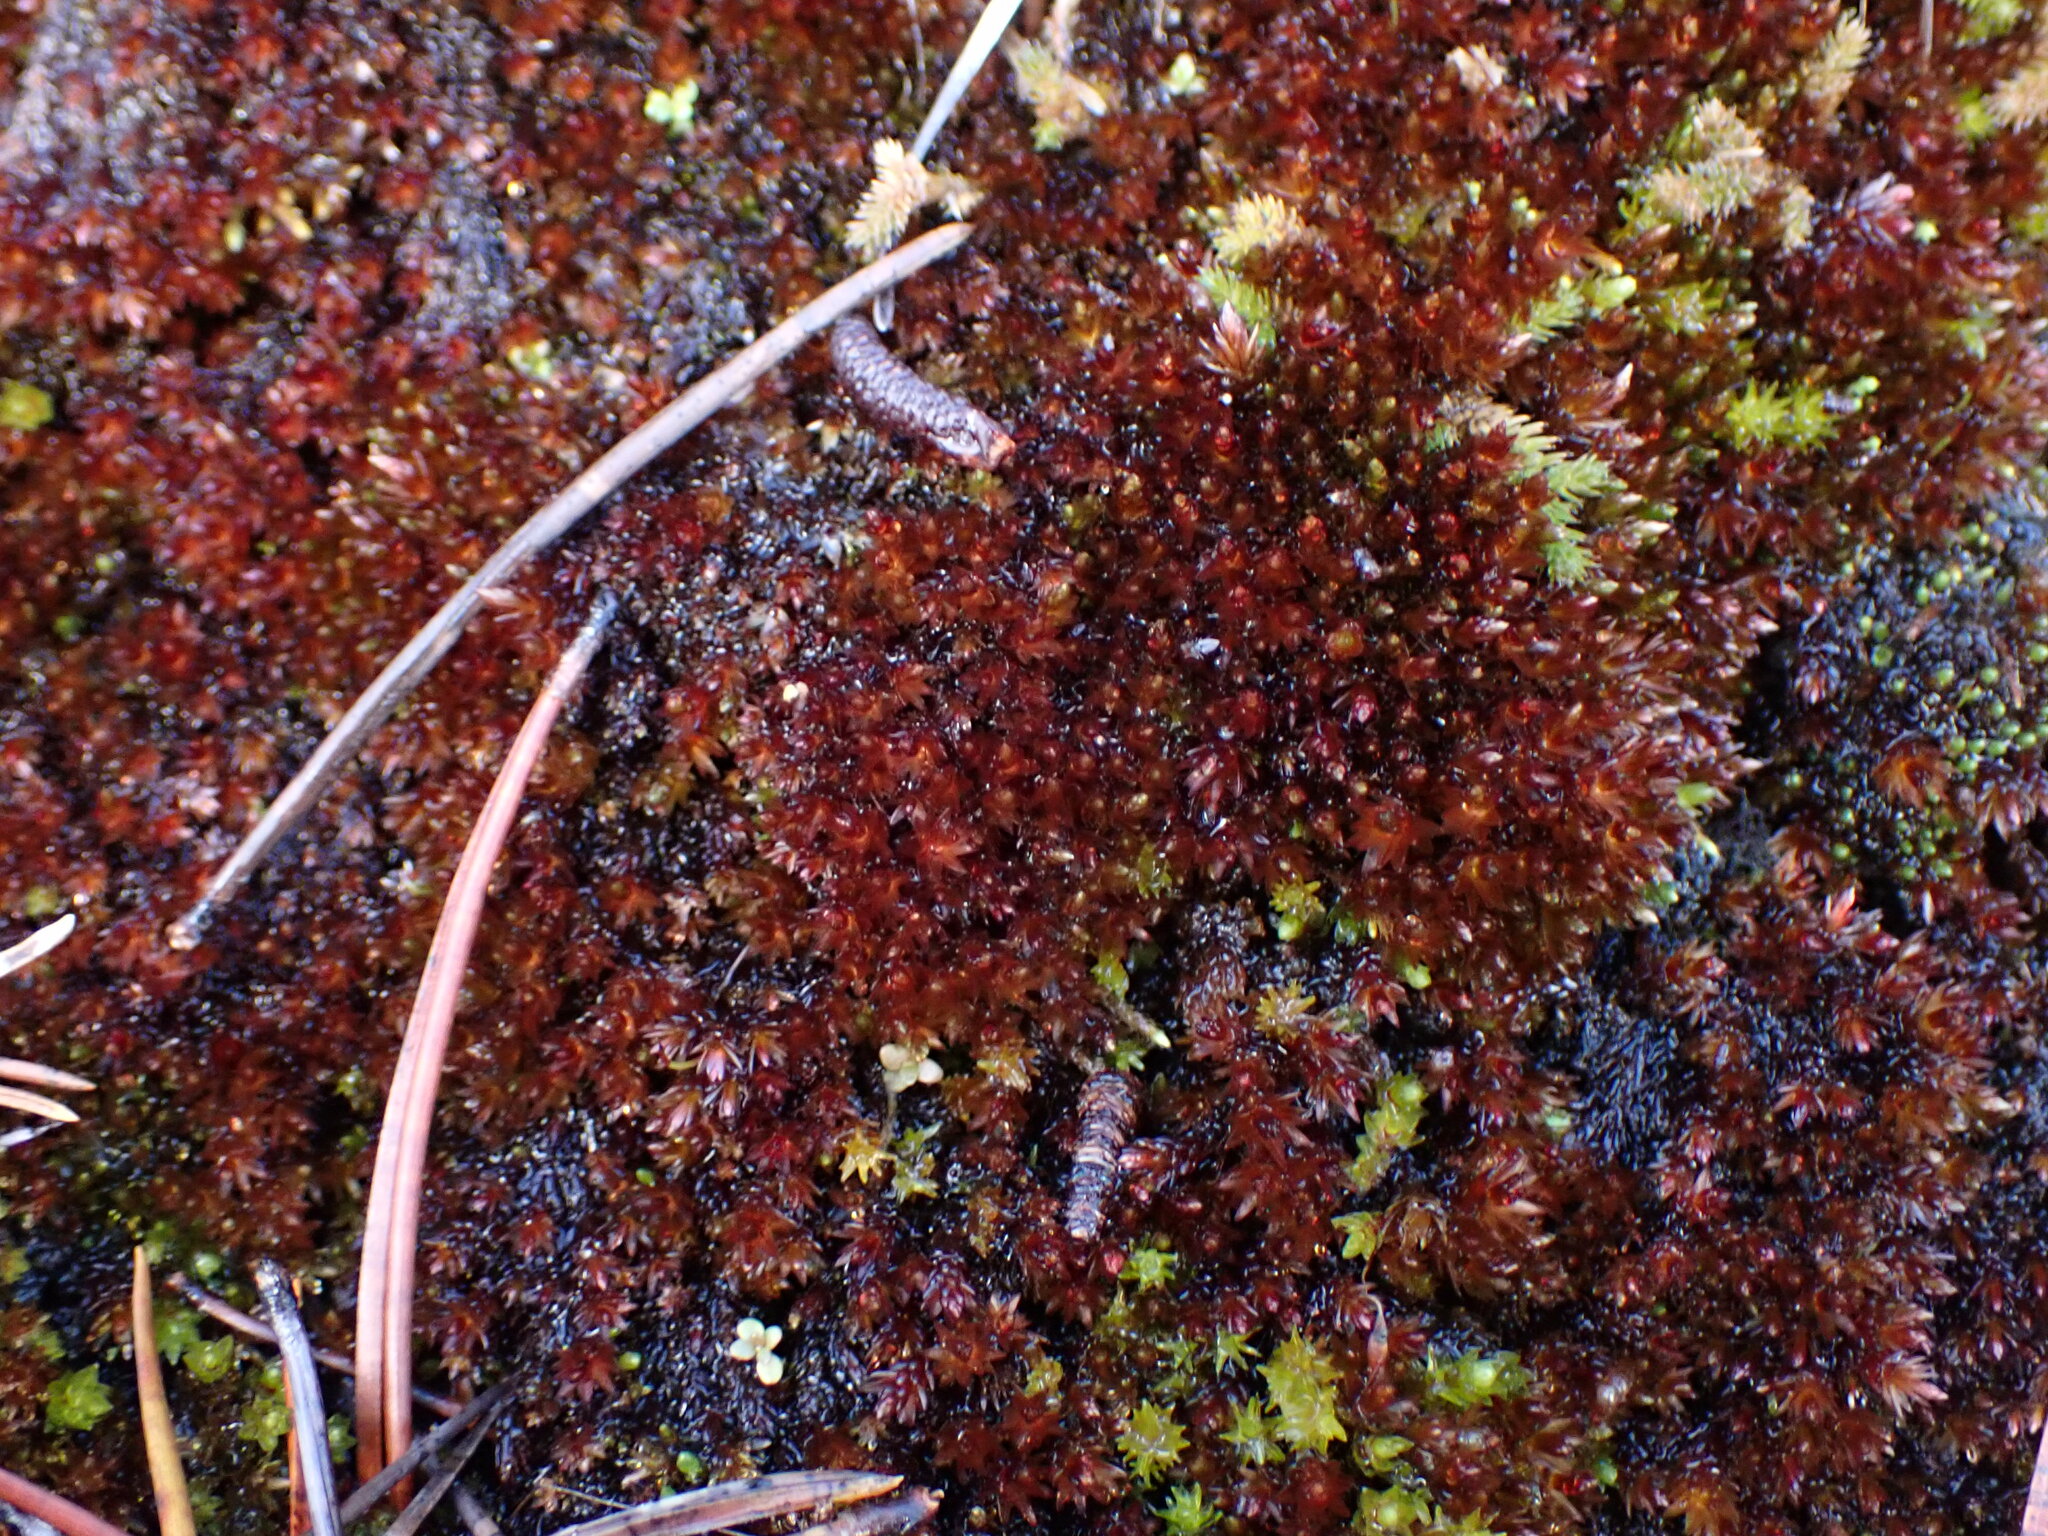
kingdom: Plantae
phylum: Bryophyta
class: Bryopsida
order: Bryales
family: Bryaceae
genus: Imbribryum
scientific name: Imbribryum miniatum
